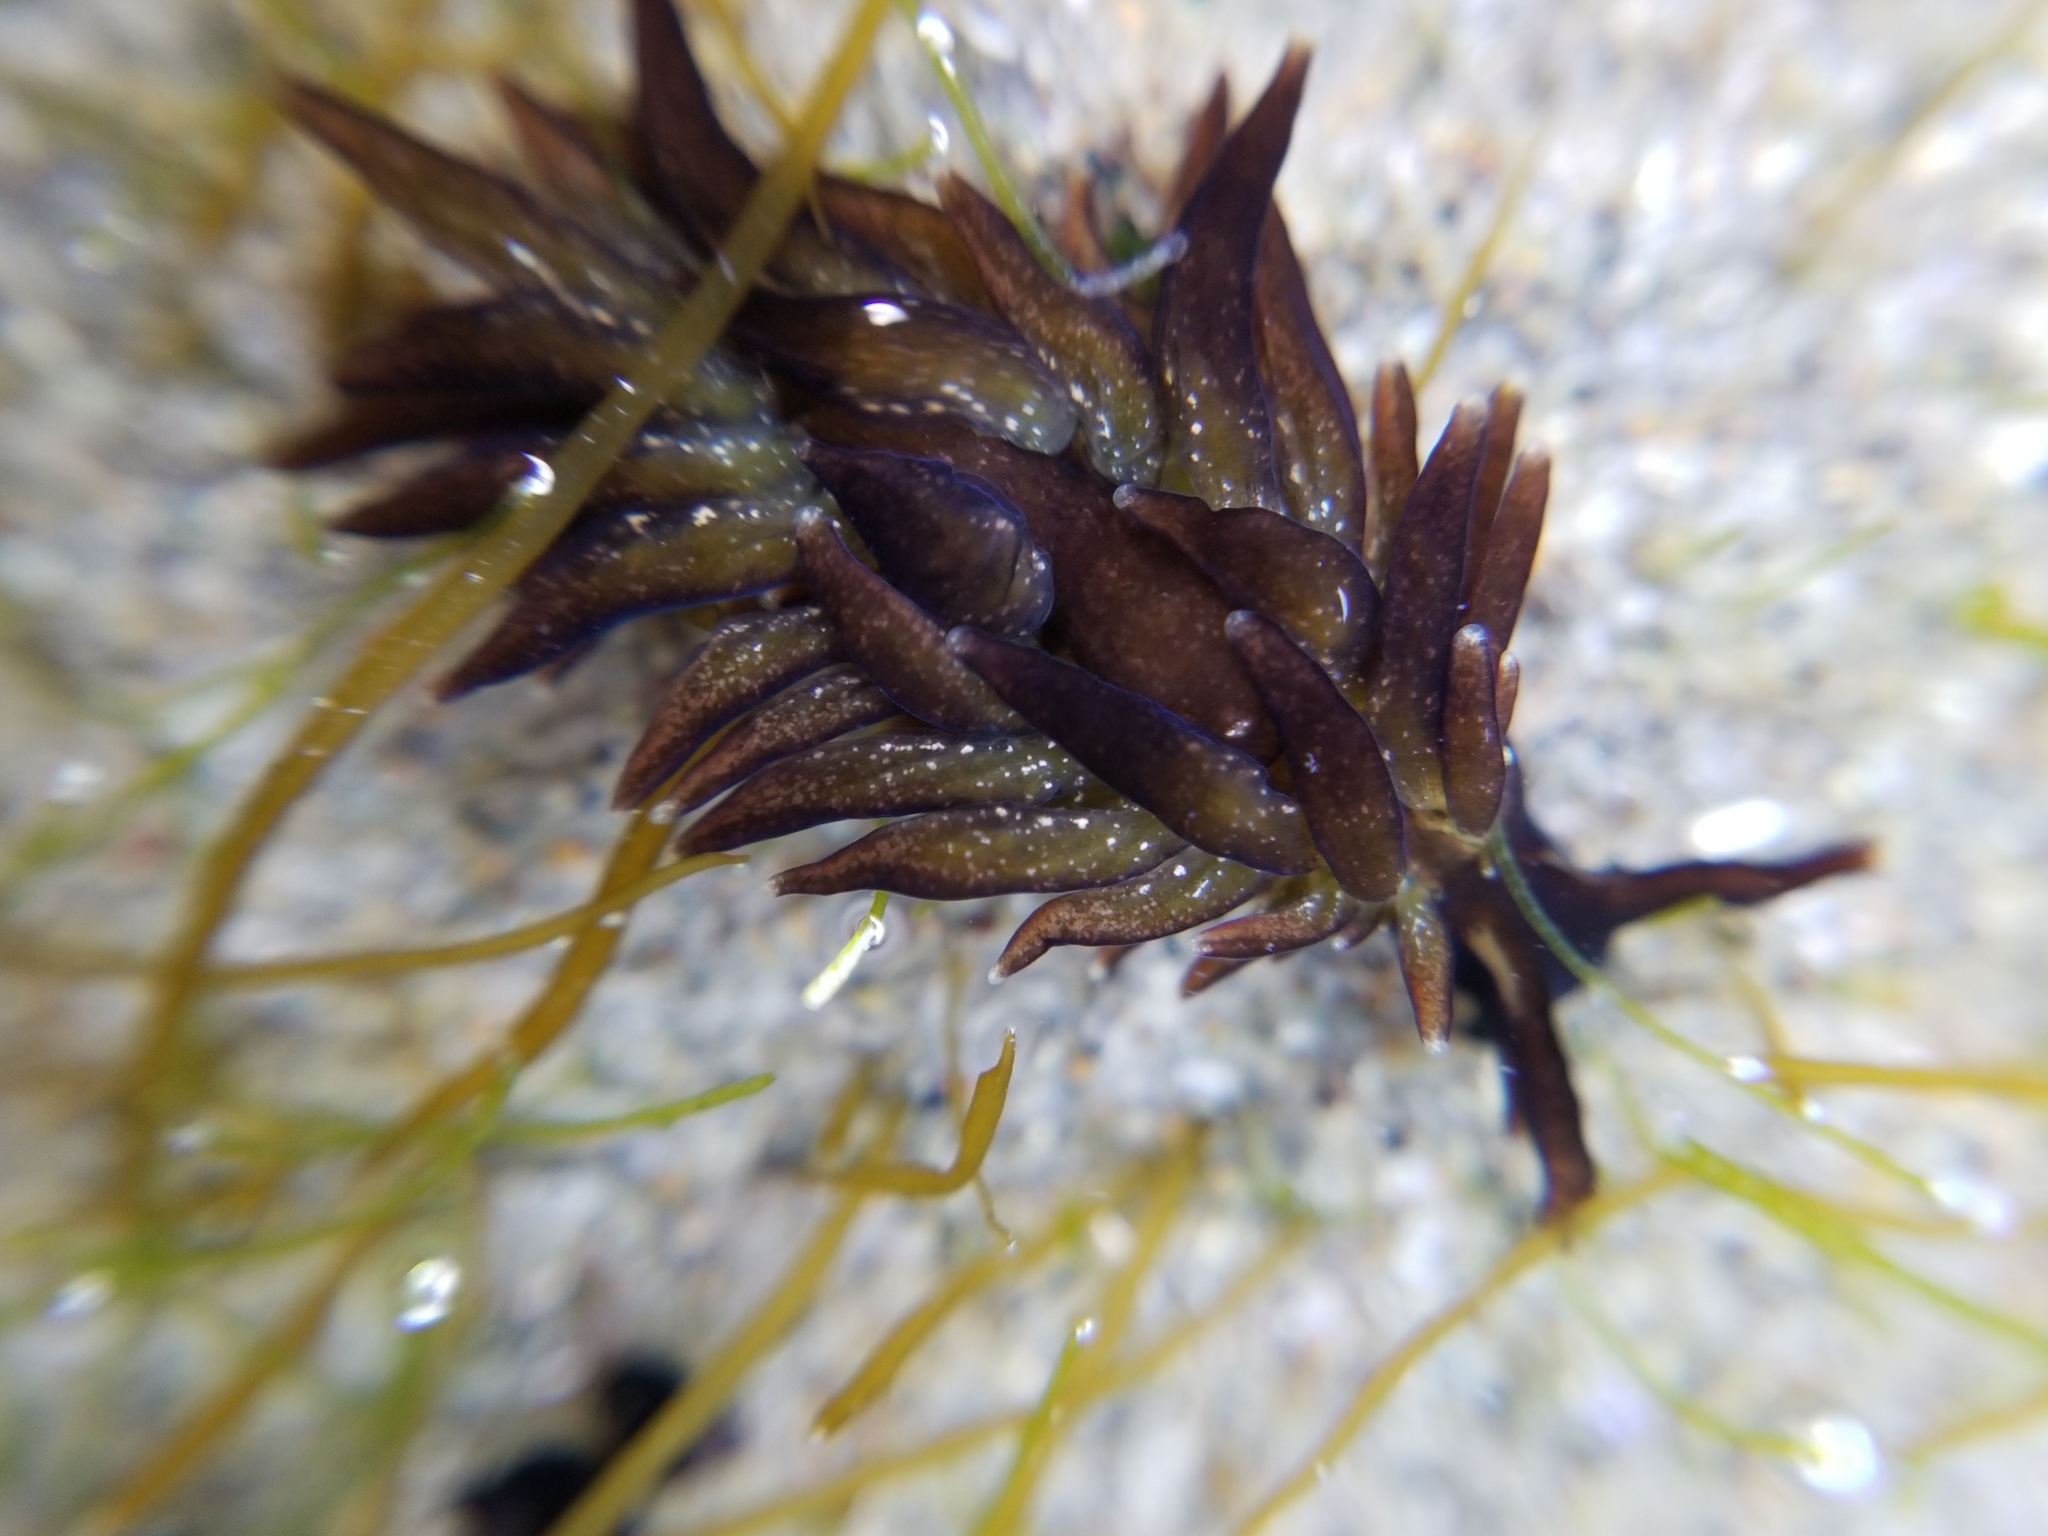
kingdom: Animalia
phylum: Mollusca
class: Gastropoda
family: Hermaeidae
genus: Aplysiopsis
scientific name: Aplysiopsis enteromorphae
